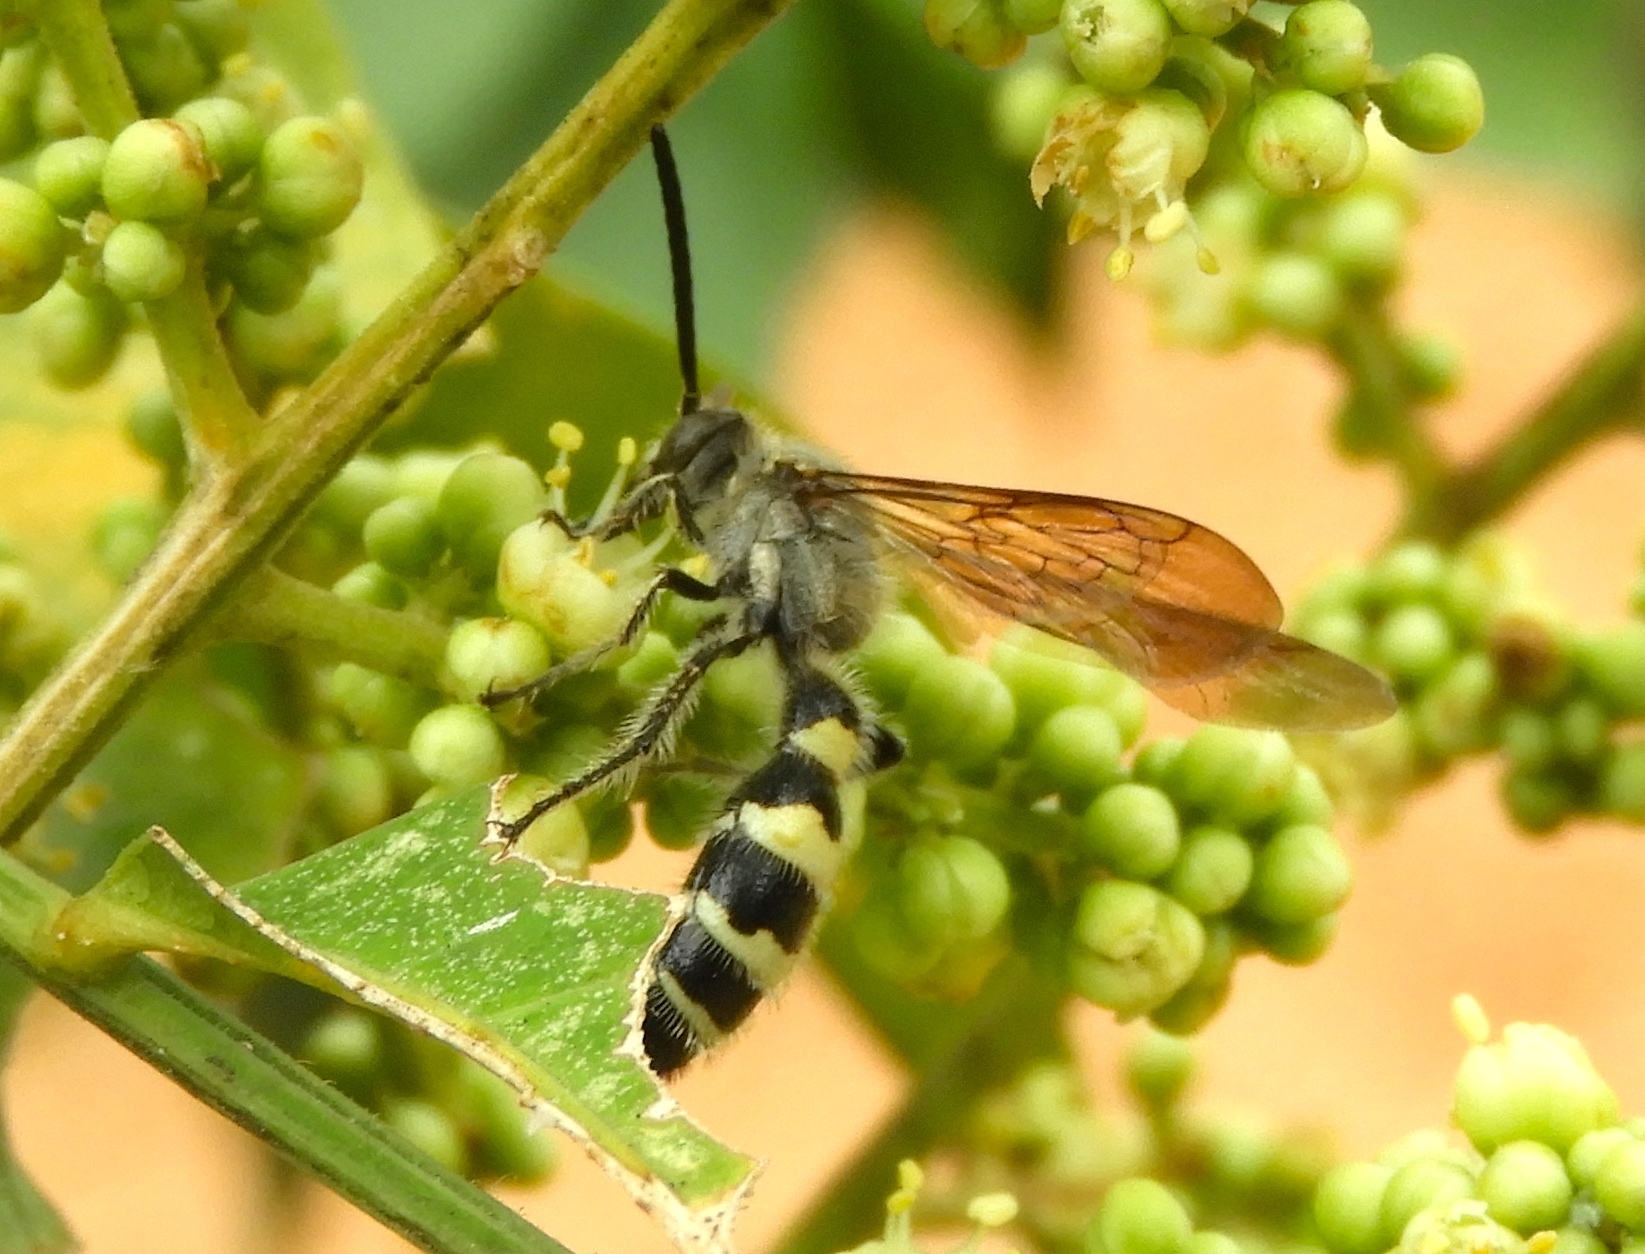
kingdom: Animalia
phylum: Arthropoda
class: Insecta
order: Hymenoptera
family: Scoliidae
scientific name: Scoliidae
